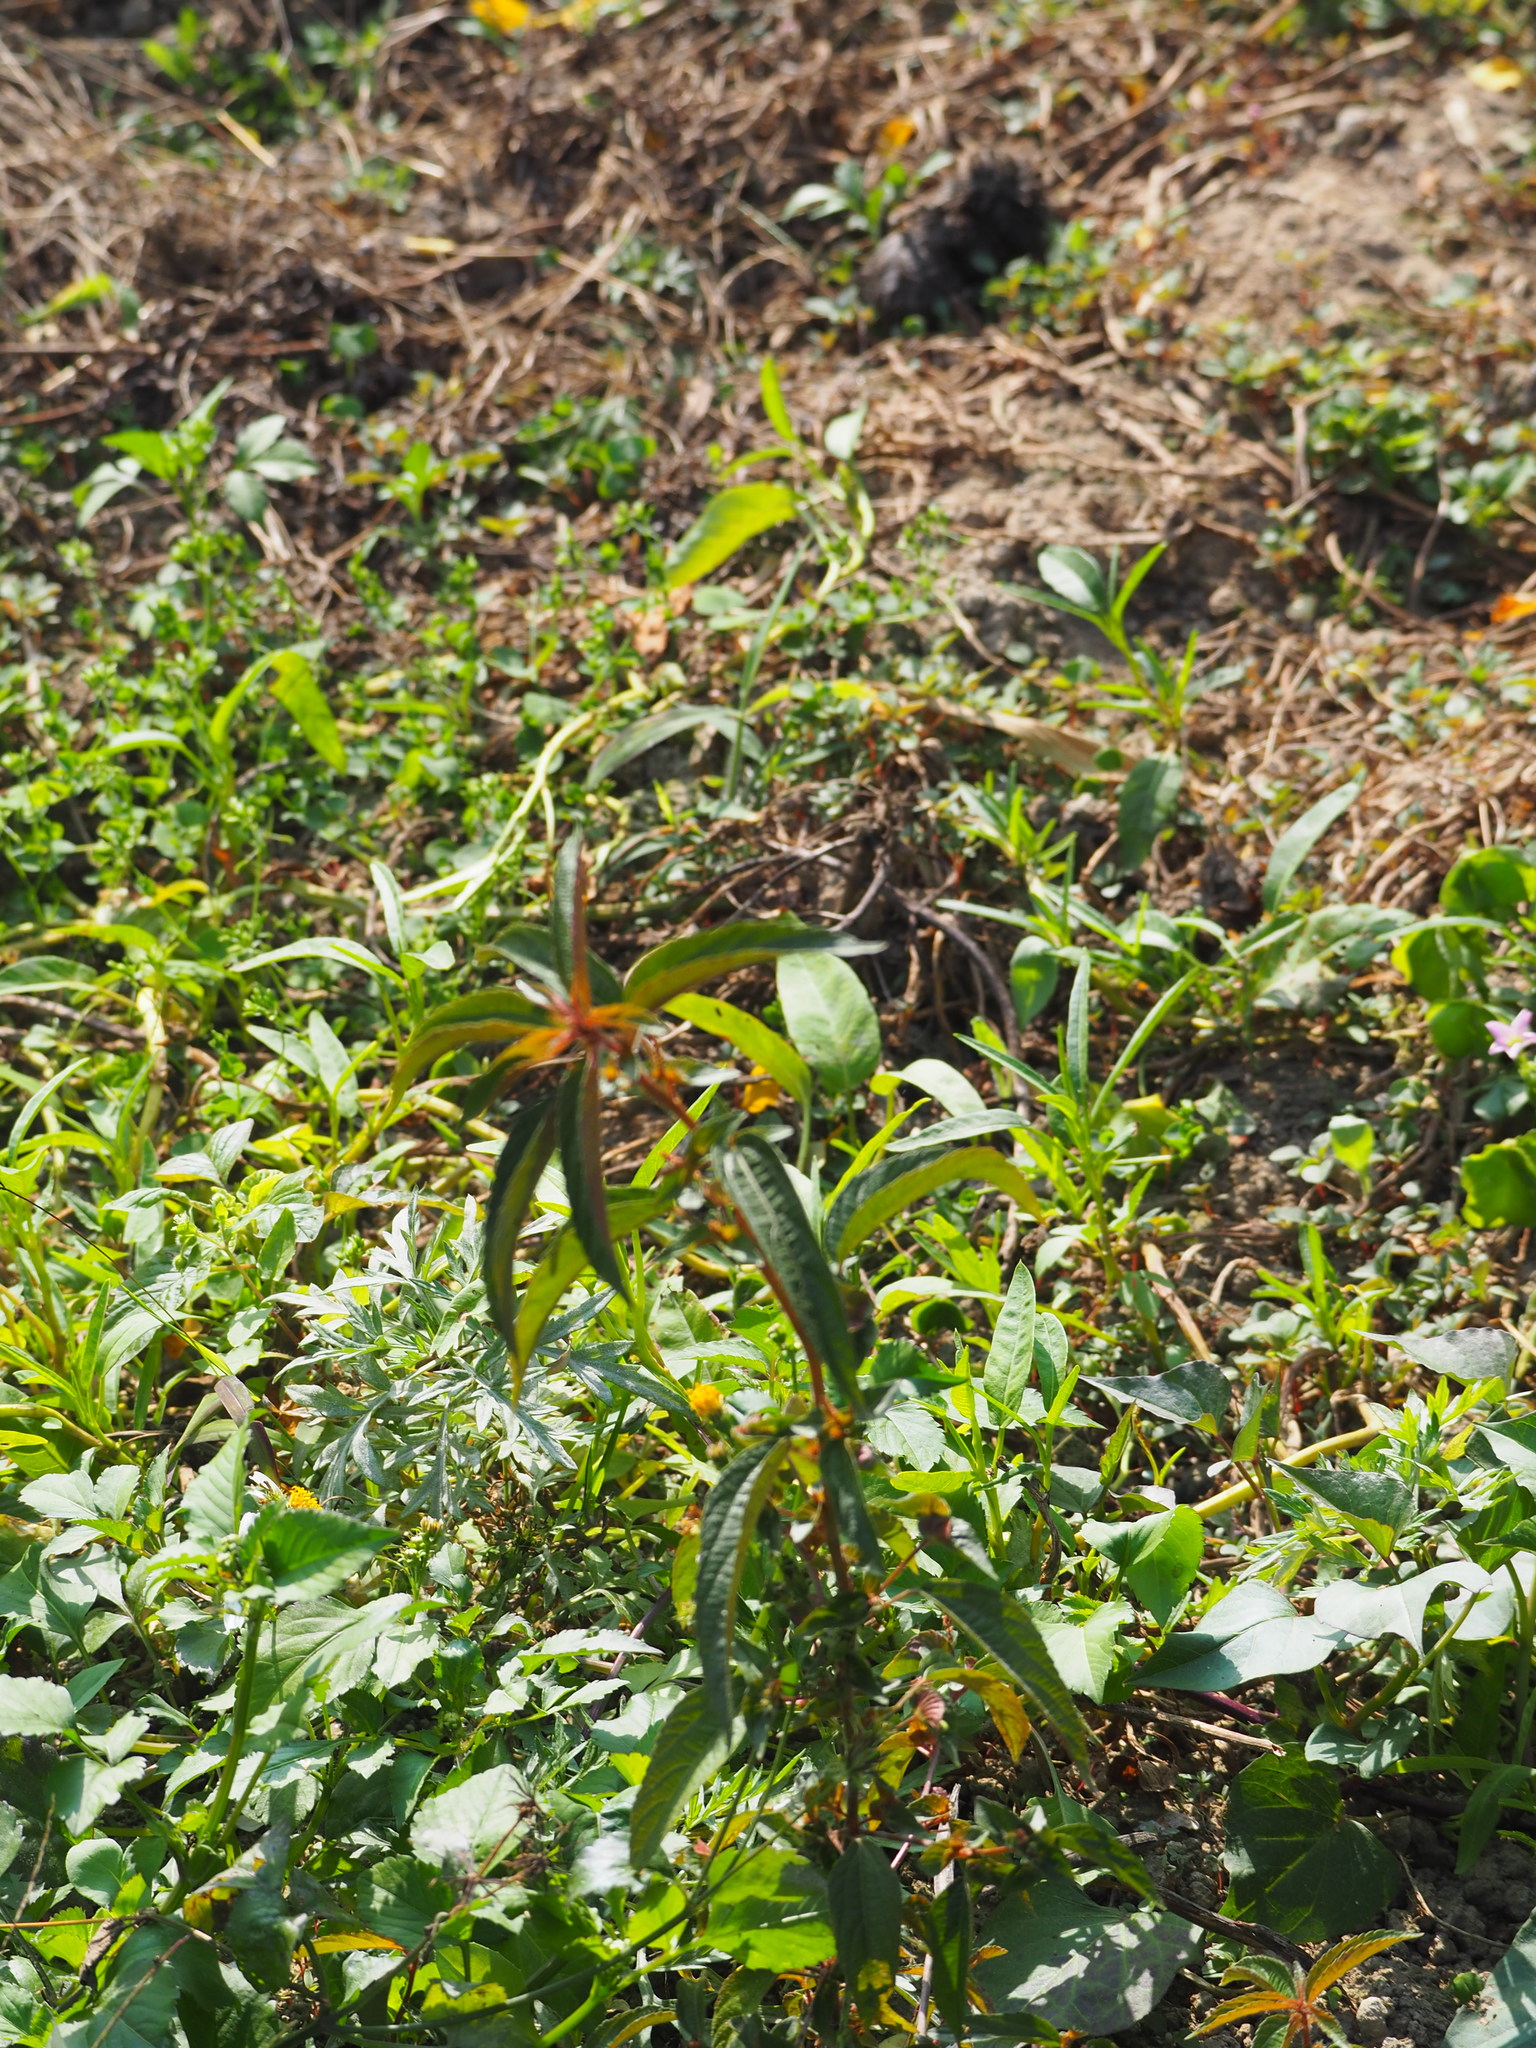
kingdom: Plantae
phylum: Tracheophyta
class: Magnoliopsida
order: Malpighiales
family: Euphorbiaceae
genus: Acalypha
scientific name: Acalypha australis
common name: Asian copperleaf
